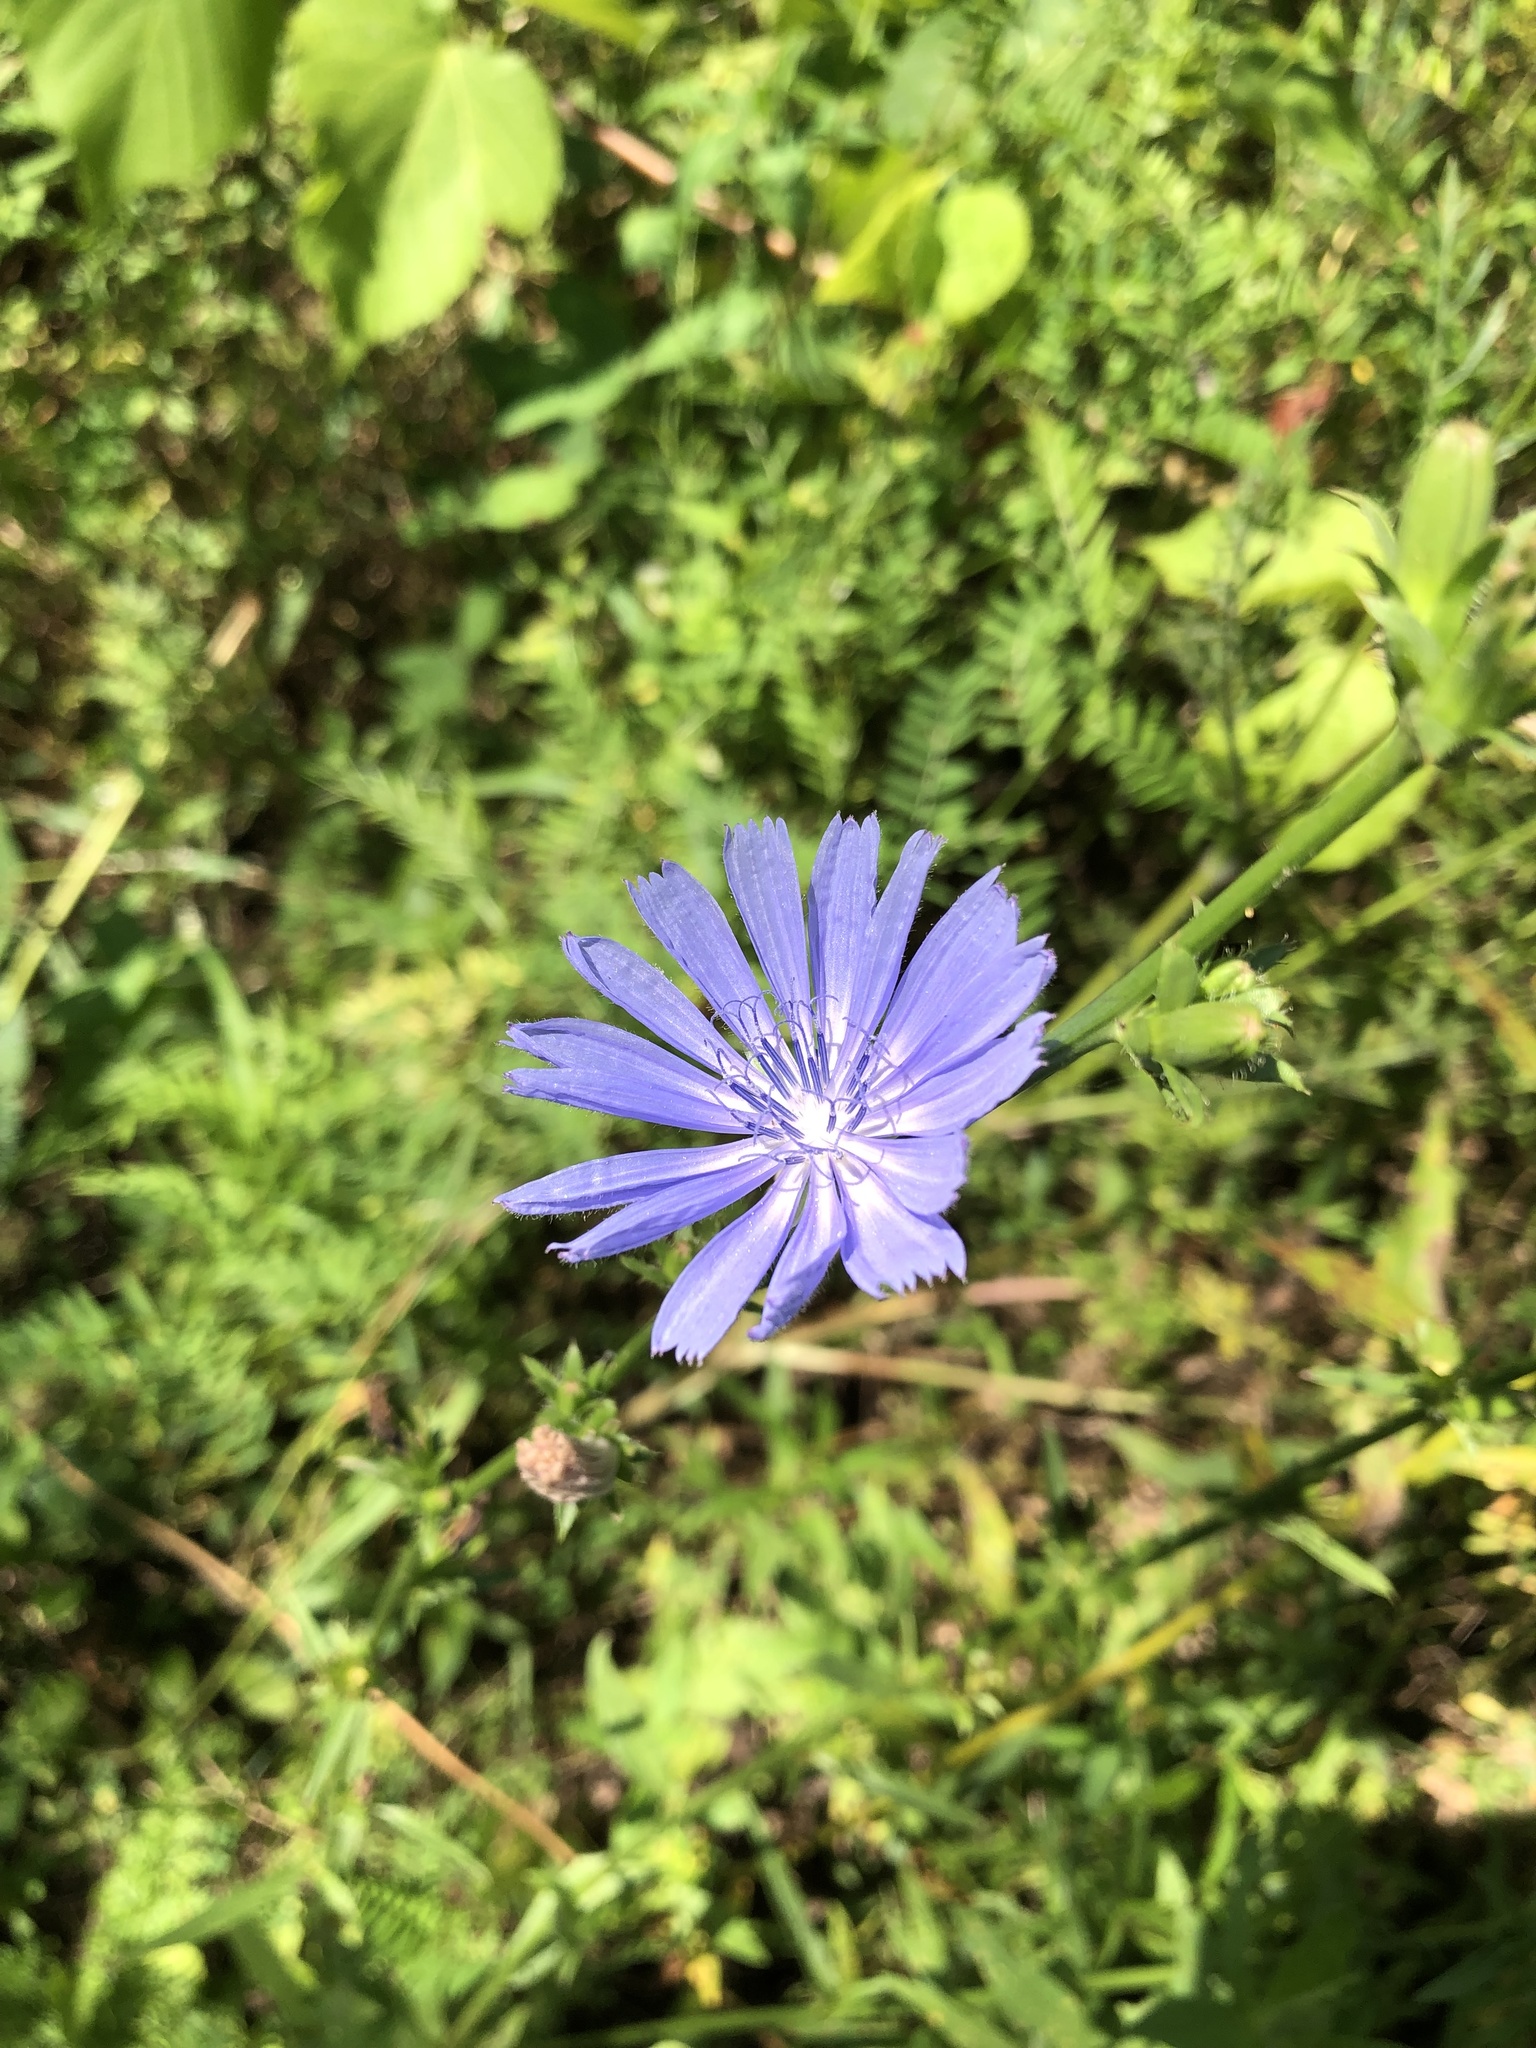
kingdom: Plantae
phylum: Tracheophyta
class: Magnoliopsida
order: Asterales
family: Asteraceae
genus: Cichorium
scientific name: Cichorium intybus
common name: Chicory
